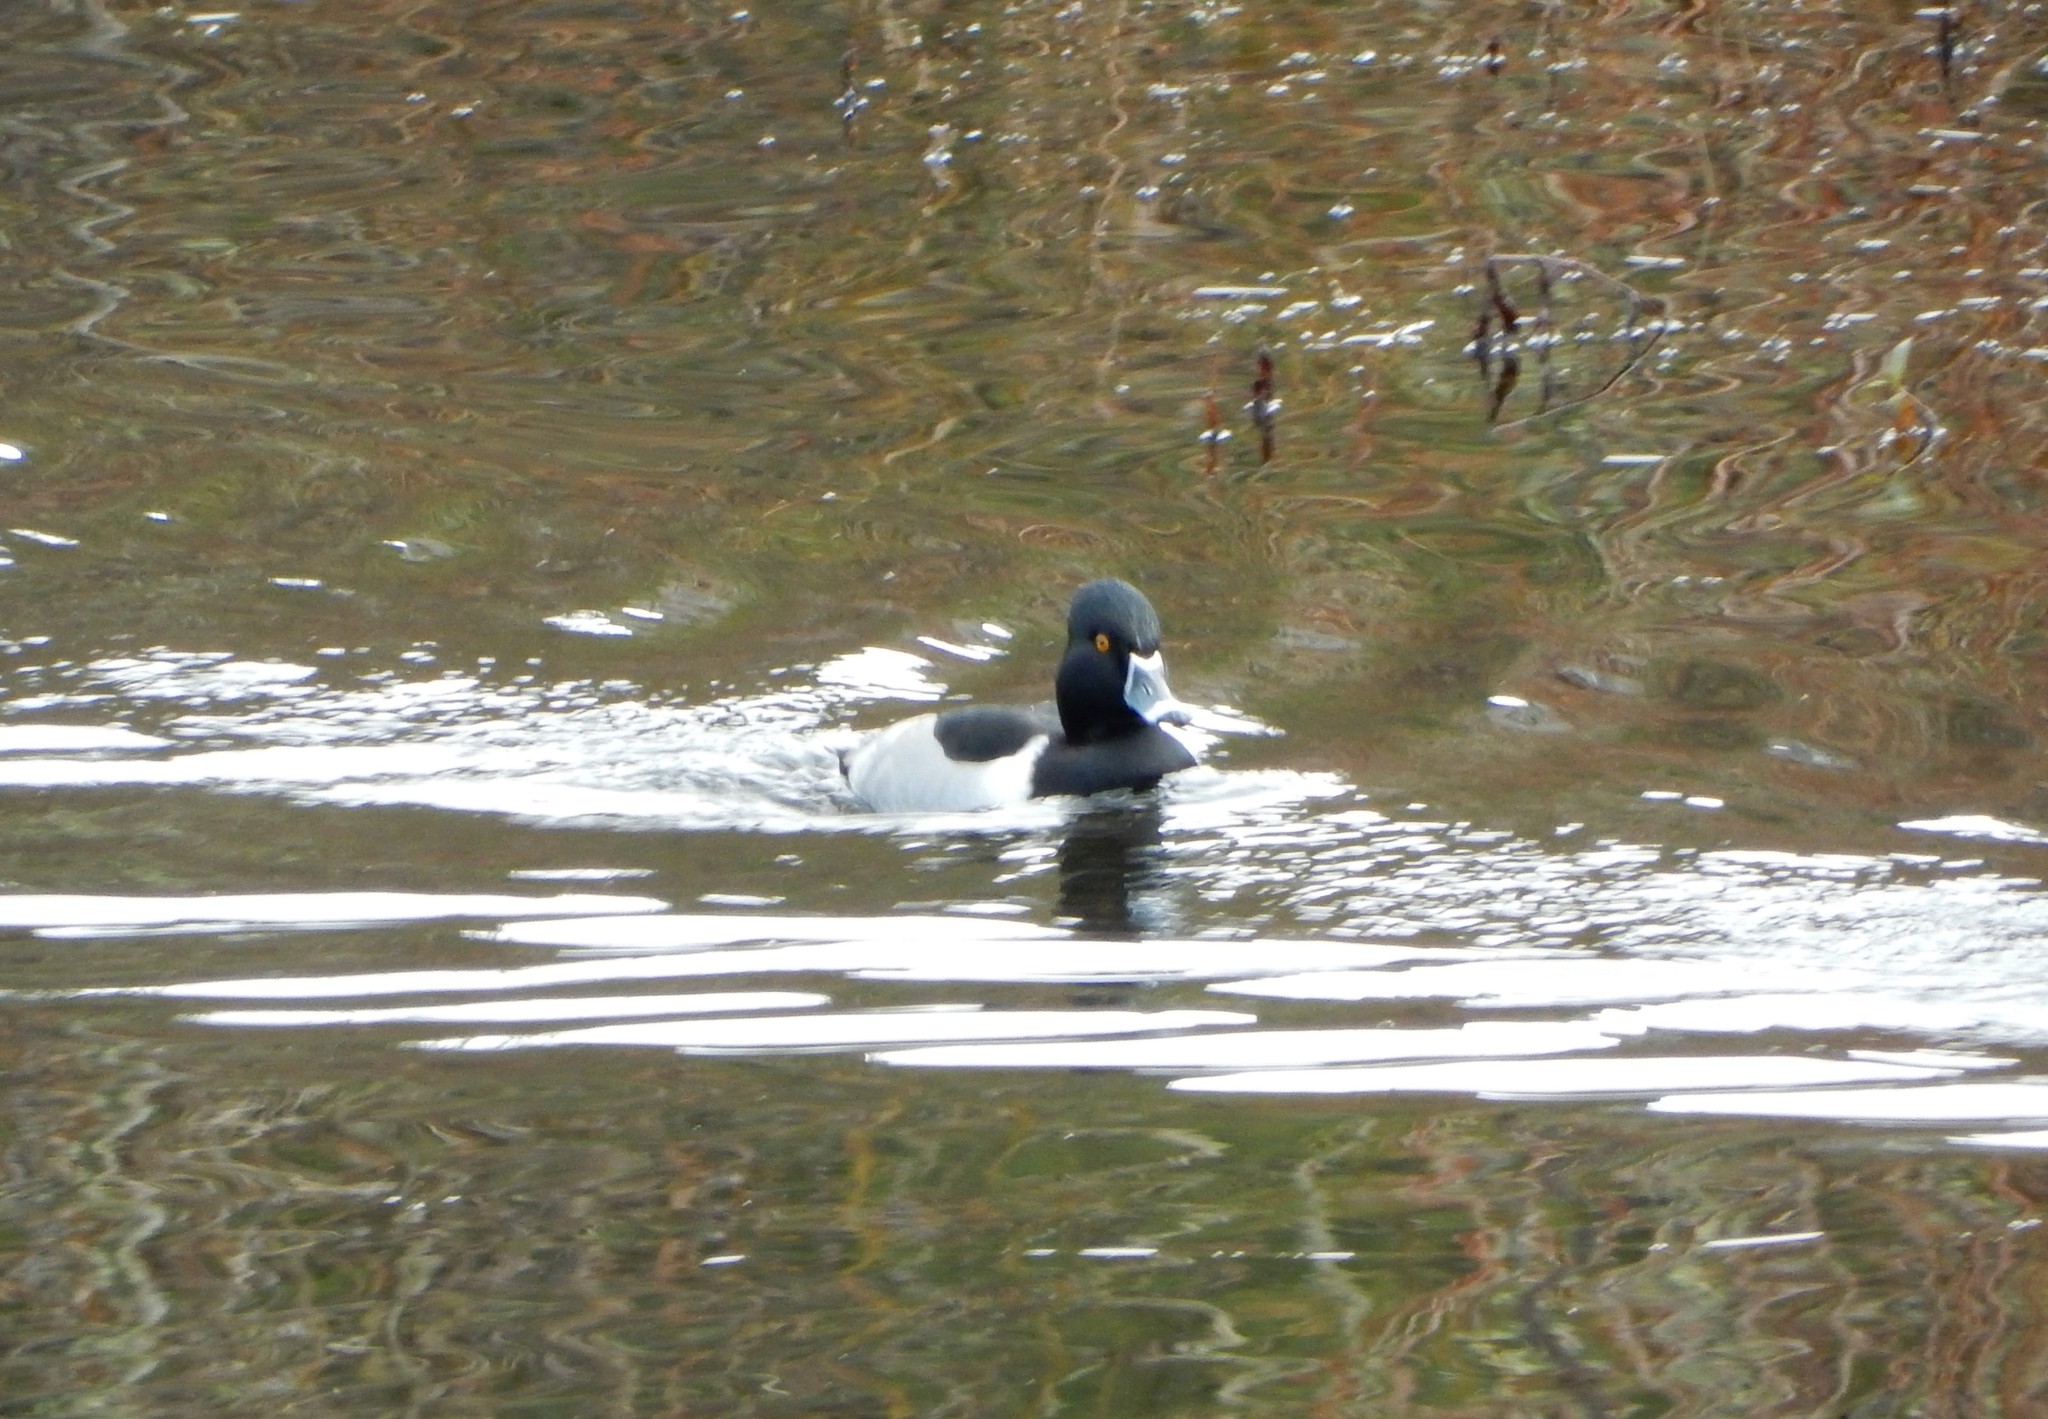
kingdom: Animalia
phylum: Chordata
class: Aves
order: Anseriformes
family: Anatidae
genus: Aythya
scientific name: Aythya collaris
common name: Ring-necked duck
